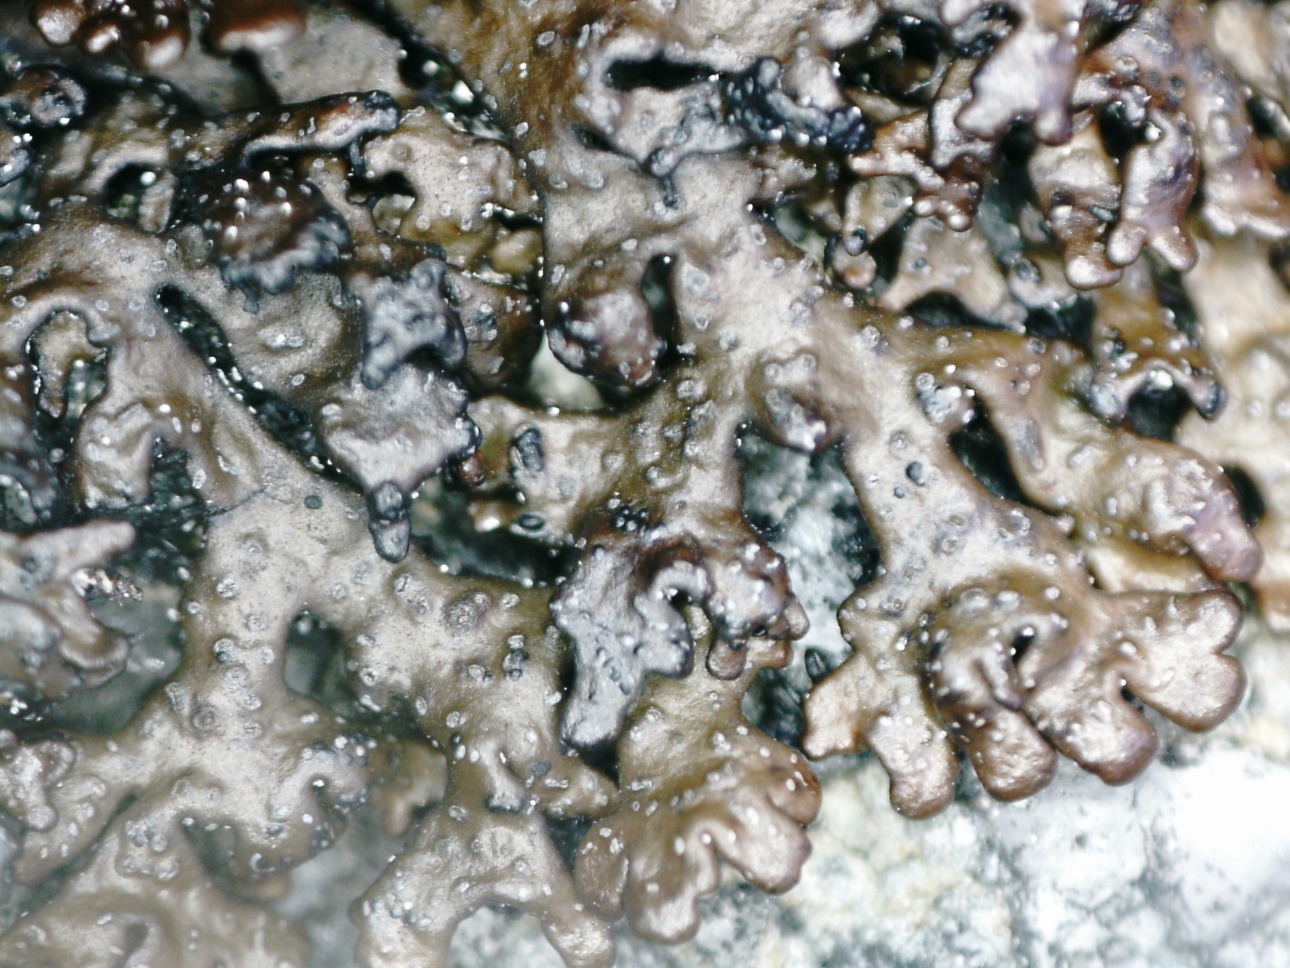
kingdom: Fungi
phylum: Ascomycota
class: Lecanoromycetes
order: Lecanorales
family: Parmeliaceae
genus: Melanelia
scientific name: Melanelia stygia
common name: Alpine camouflage lichen
